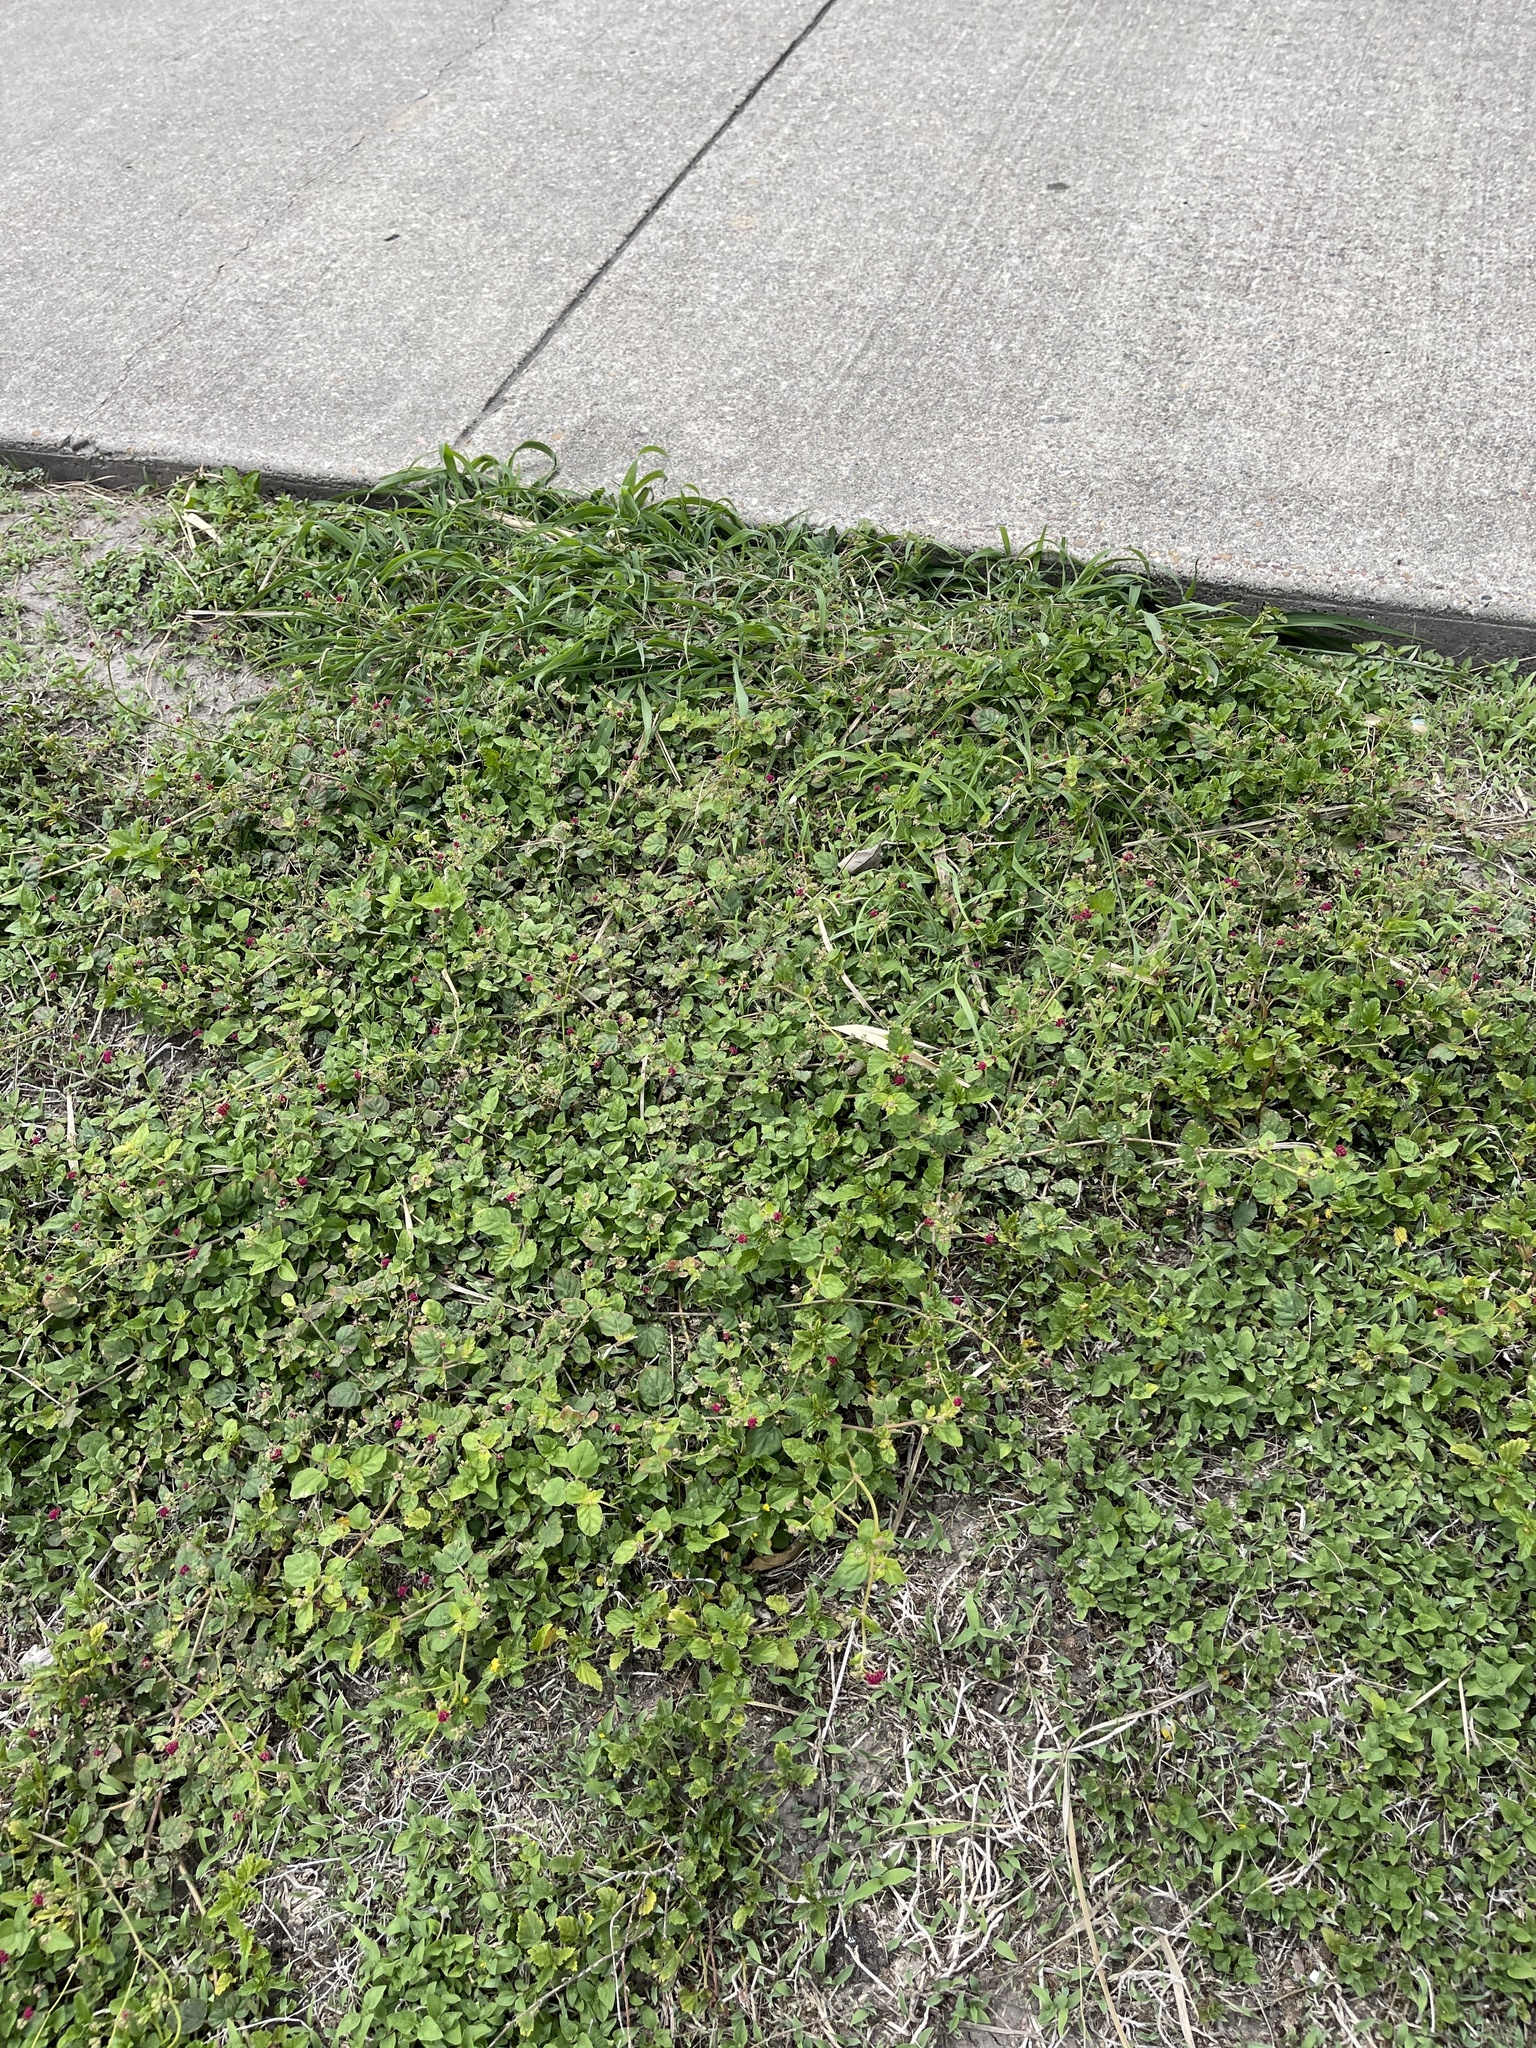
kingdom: Plantae
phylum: Tracheophyta
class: Magnoliopsida
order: Caryophyllales
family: Nyctaginaceae
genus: Boerhavia
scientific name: Boerhavia coccinea
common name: Scarlet spiderling
